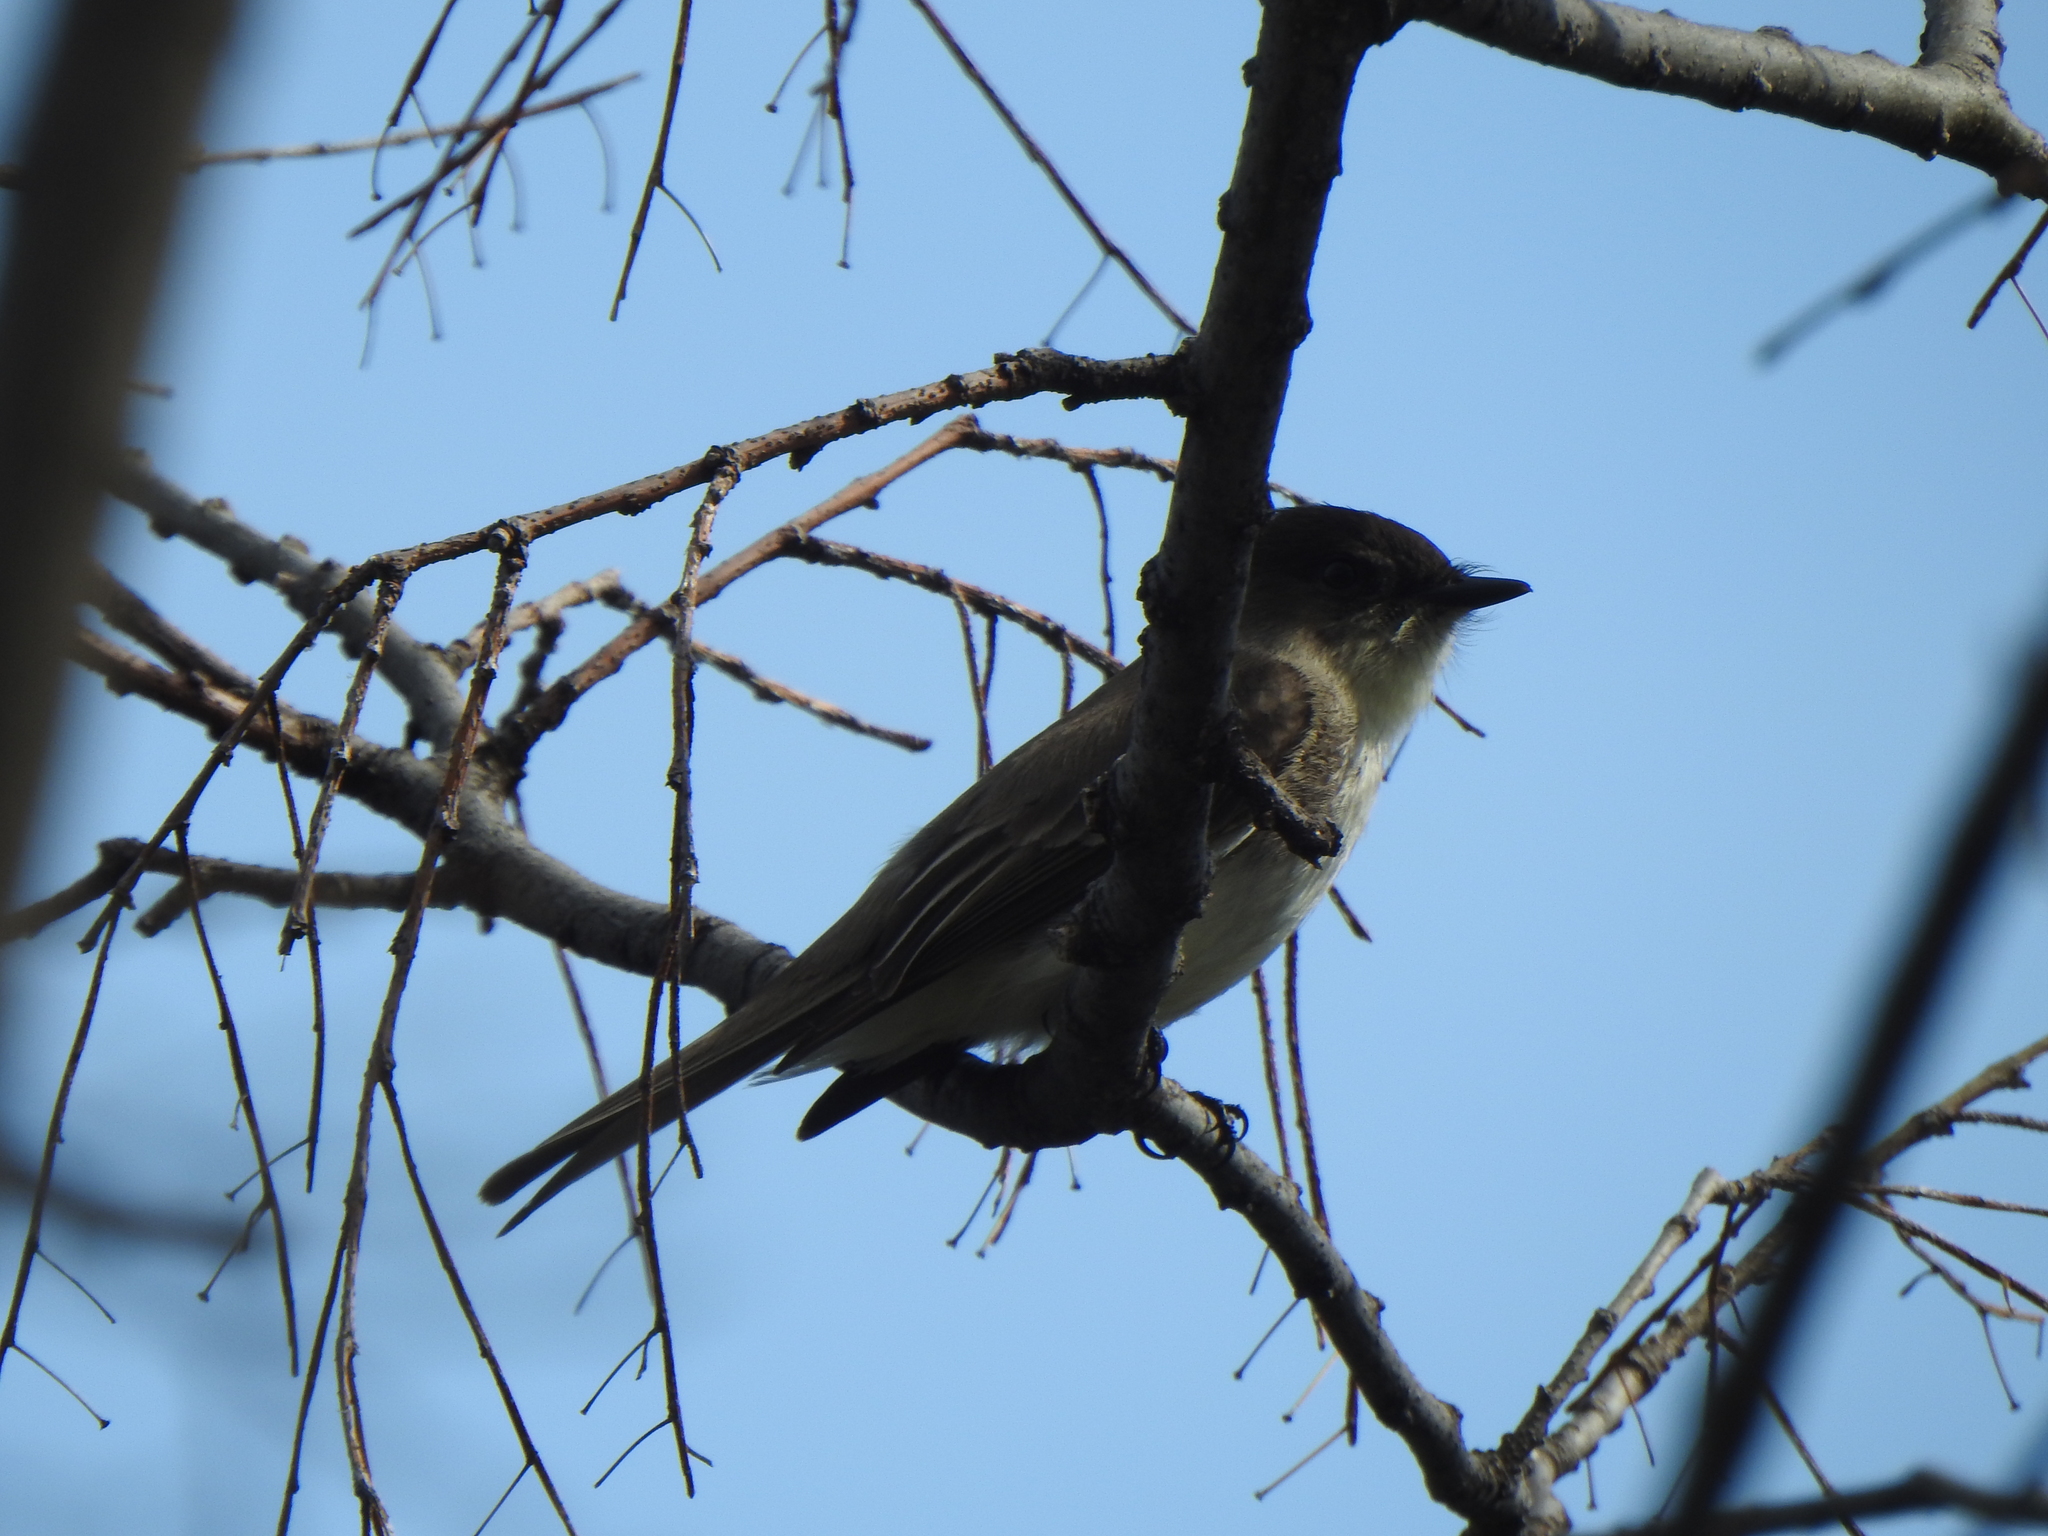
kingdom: Animalia
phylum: Chordata
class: Aves
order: Passeriformes
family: Tyrannidae
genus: Sayornis
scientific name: Sayornis phoebe
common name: Eastern phoebe
